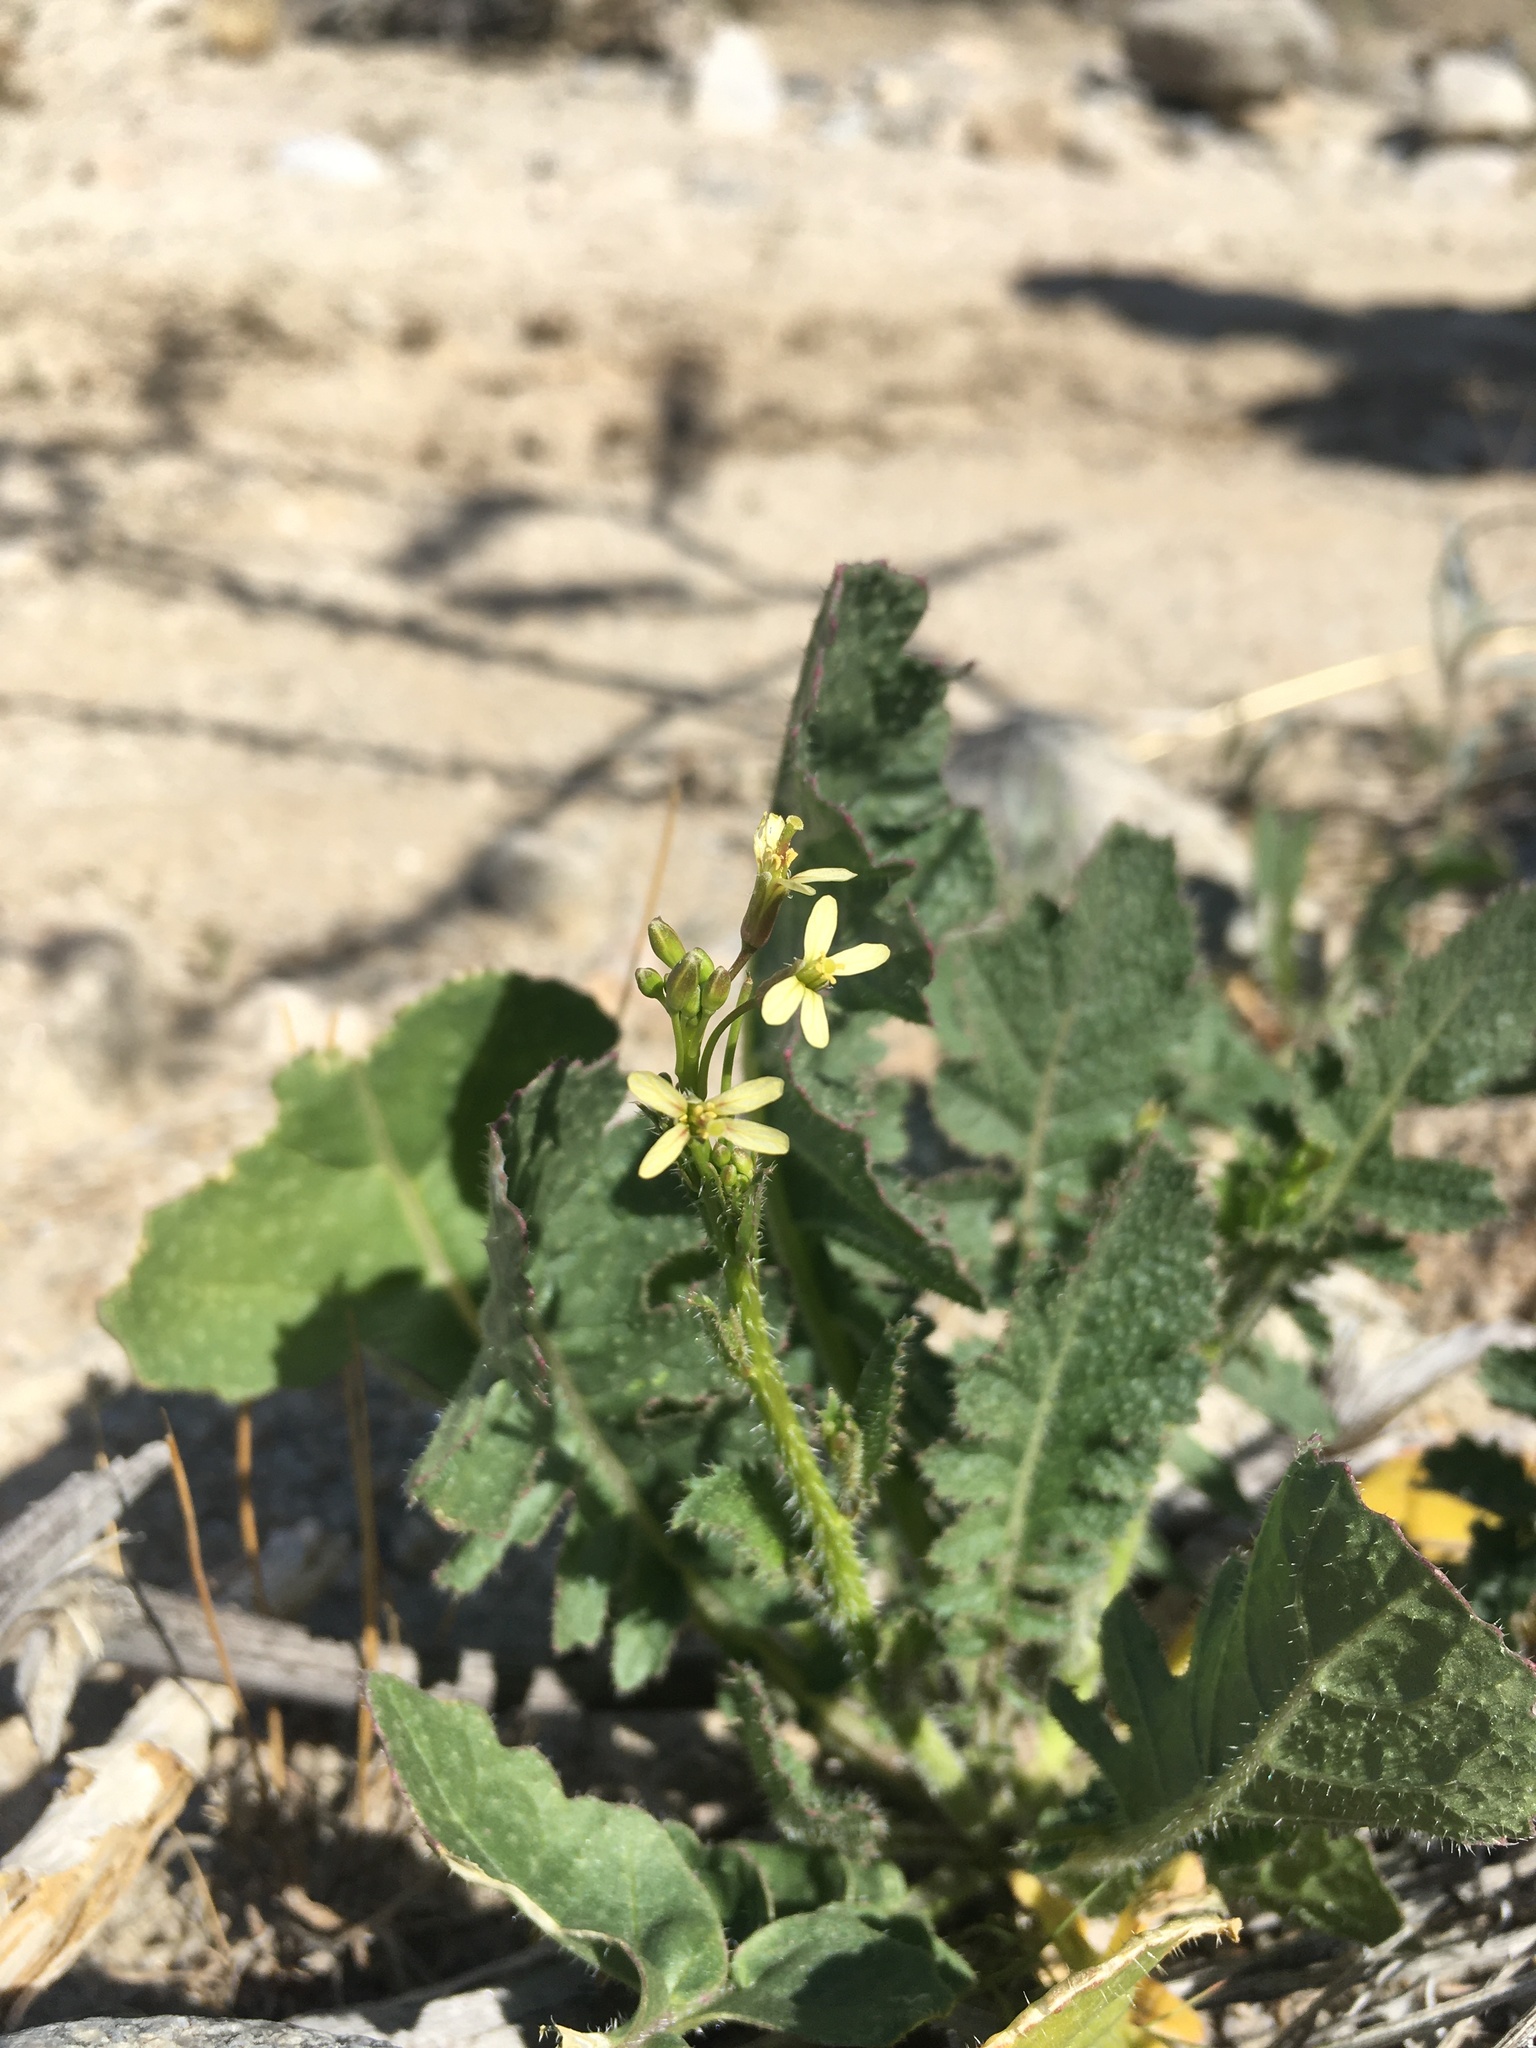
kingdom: Plantae
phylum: Tracheophyta
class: Magnoliopsida
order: Brassicales
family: Brassicaceae
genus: Brassica
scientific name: Brassica tournefortii
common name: Pale cabbage
